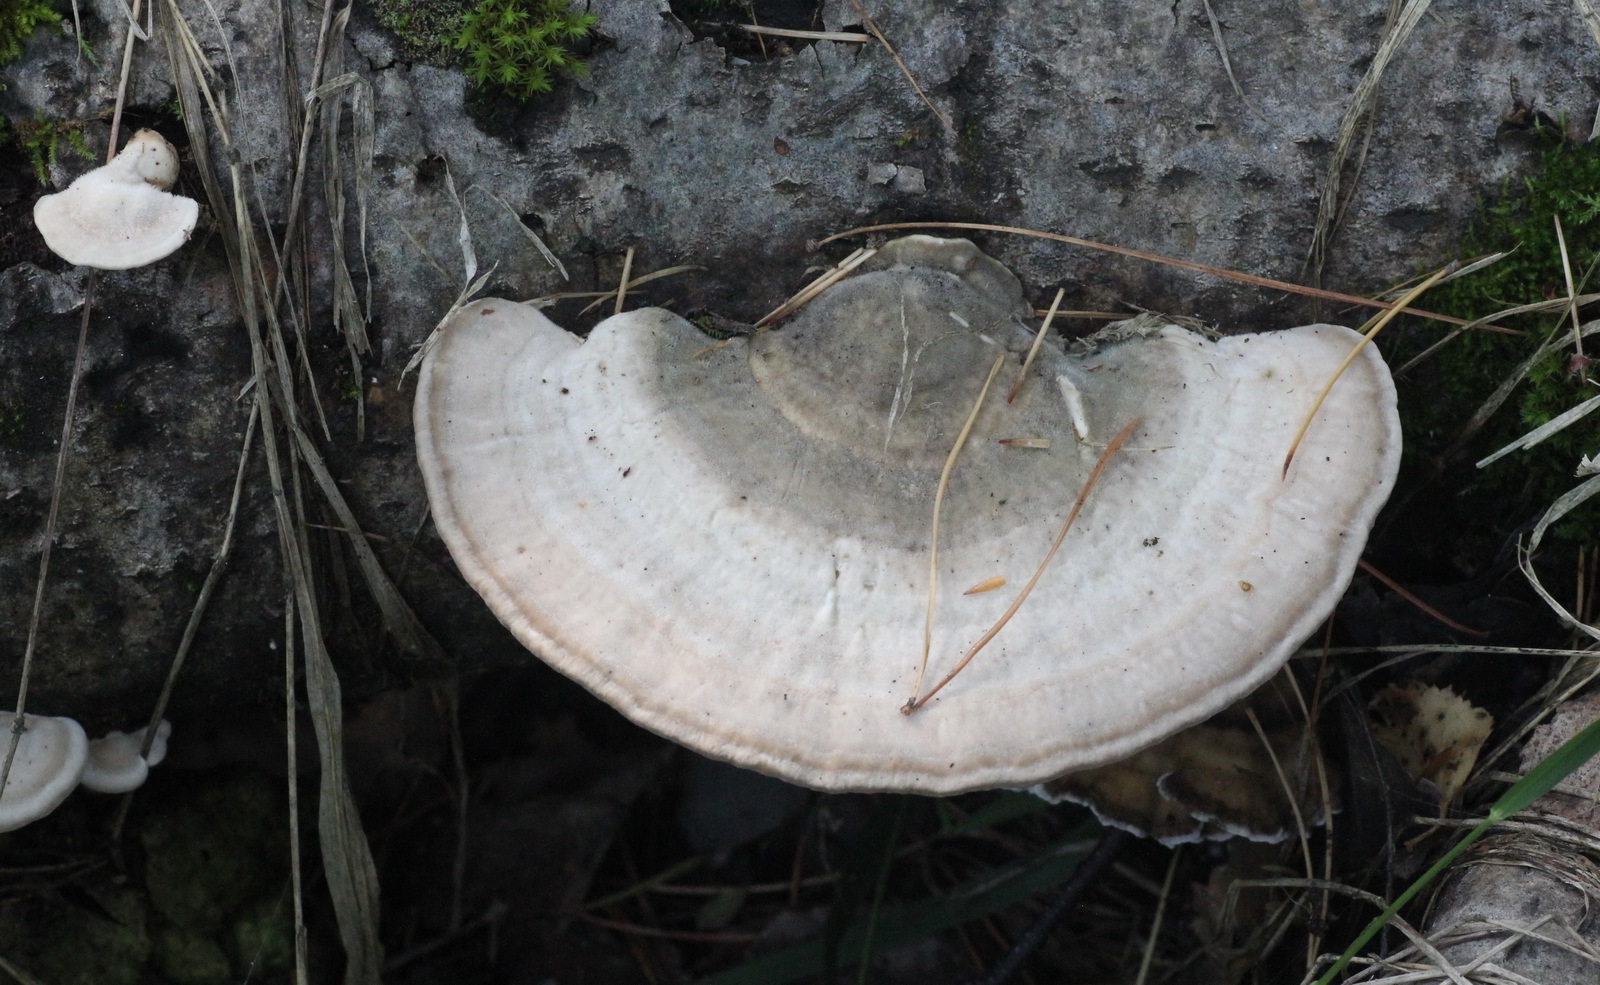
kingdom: Fungi
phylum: Basidiomycota
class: Agaricomycetes
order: Polyporales
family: Polyporaceae
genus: Trametes
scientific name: Trametes gibbosa
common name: Lumpy bracket
